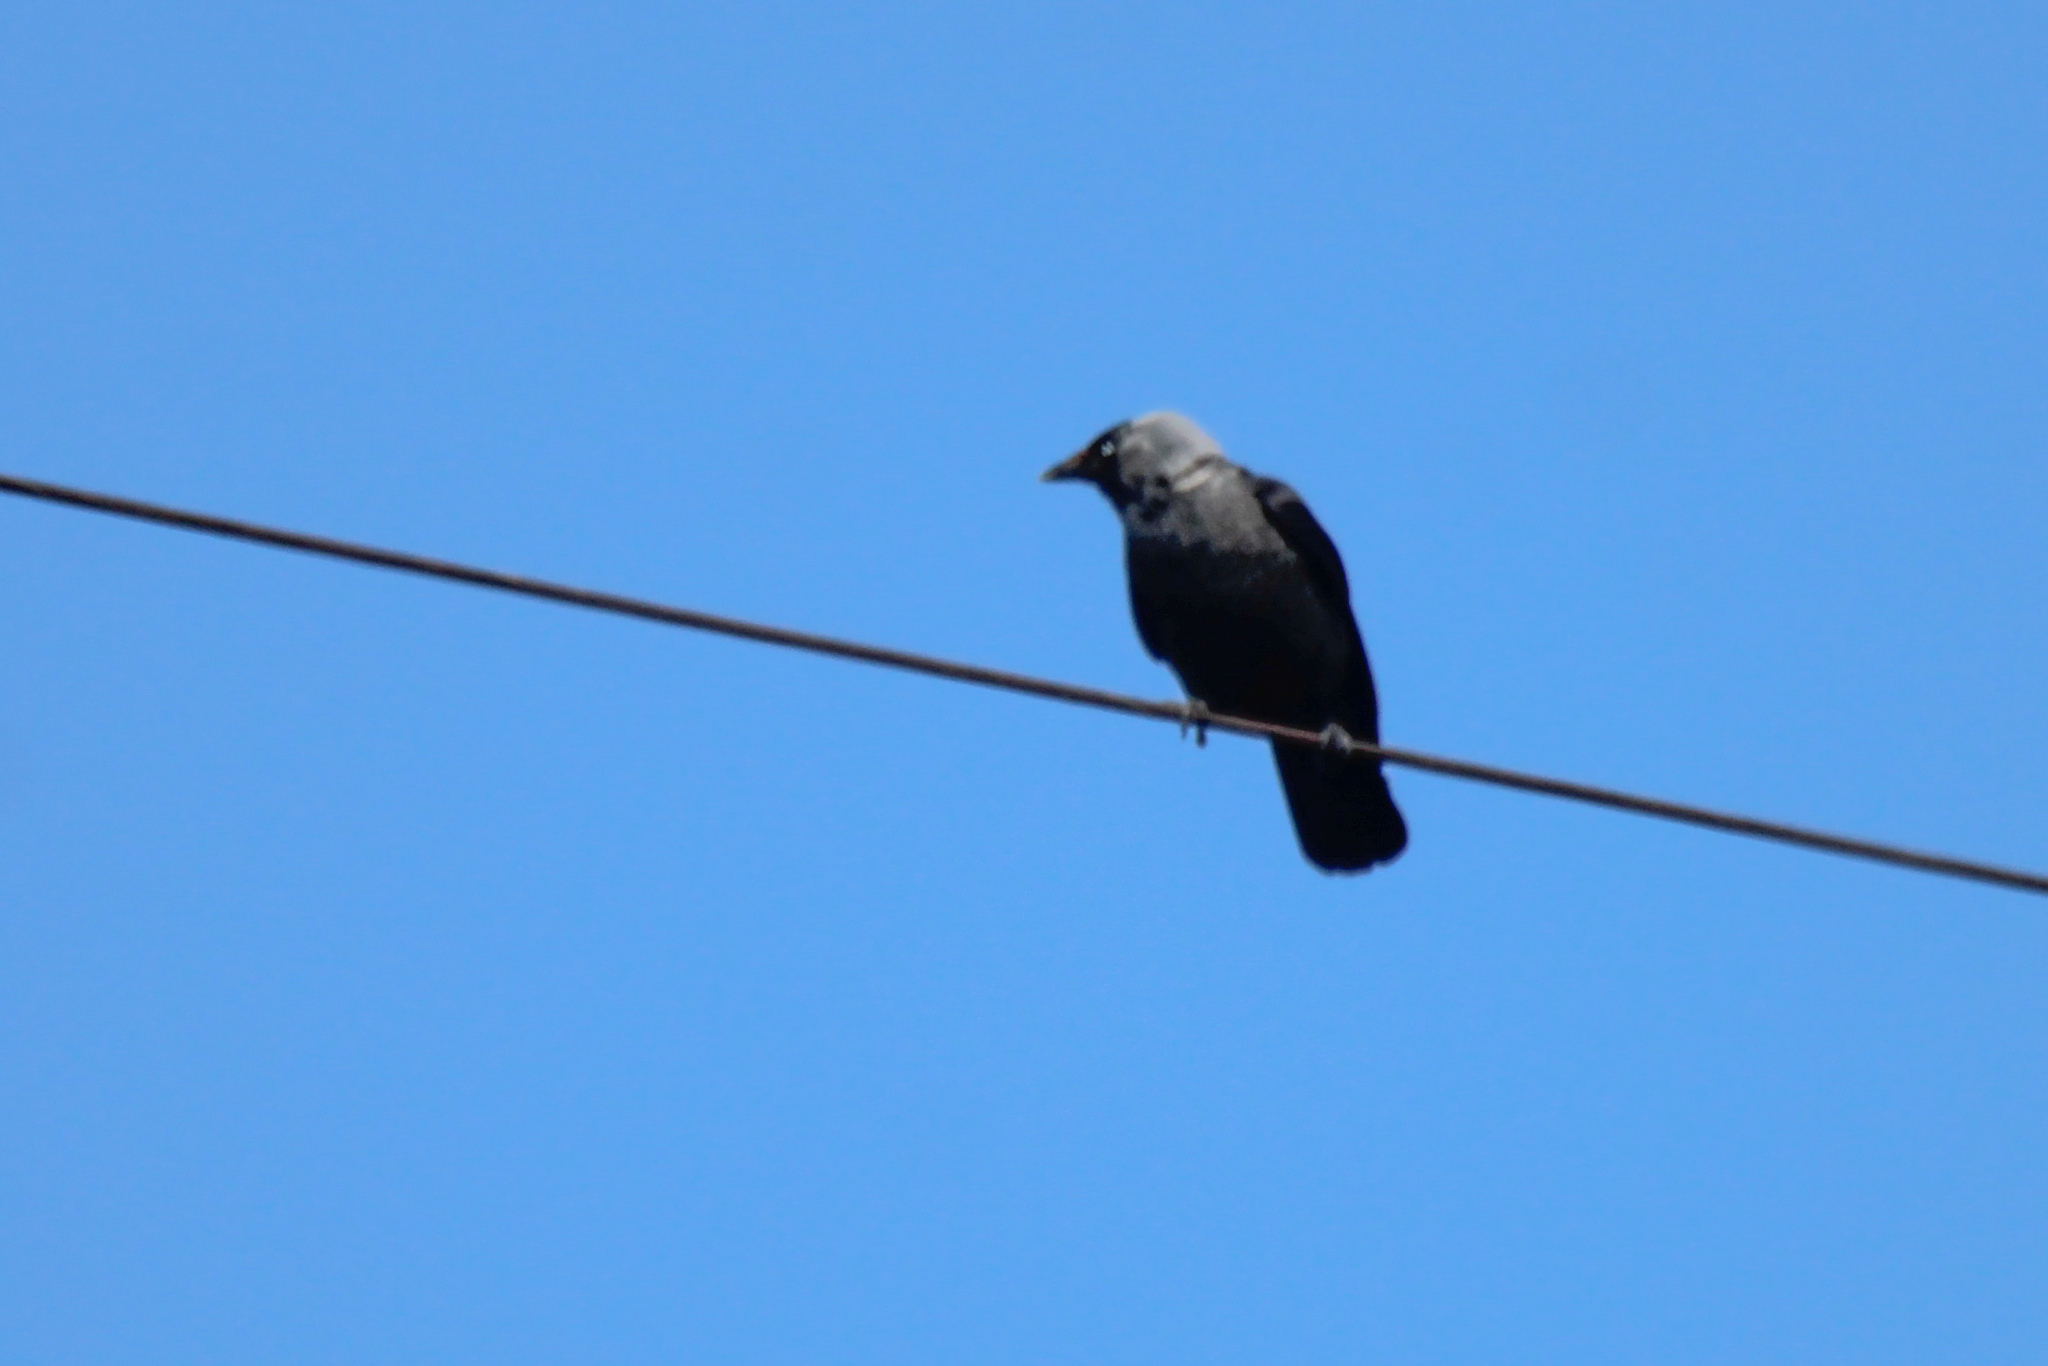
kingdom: Animalia
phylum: Chordata
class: Aves
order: Passeriformes
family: Corvidae
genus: Coloeus
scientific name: Coloeus monedula
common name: Western jackdaw
